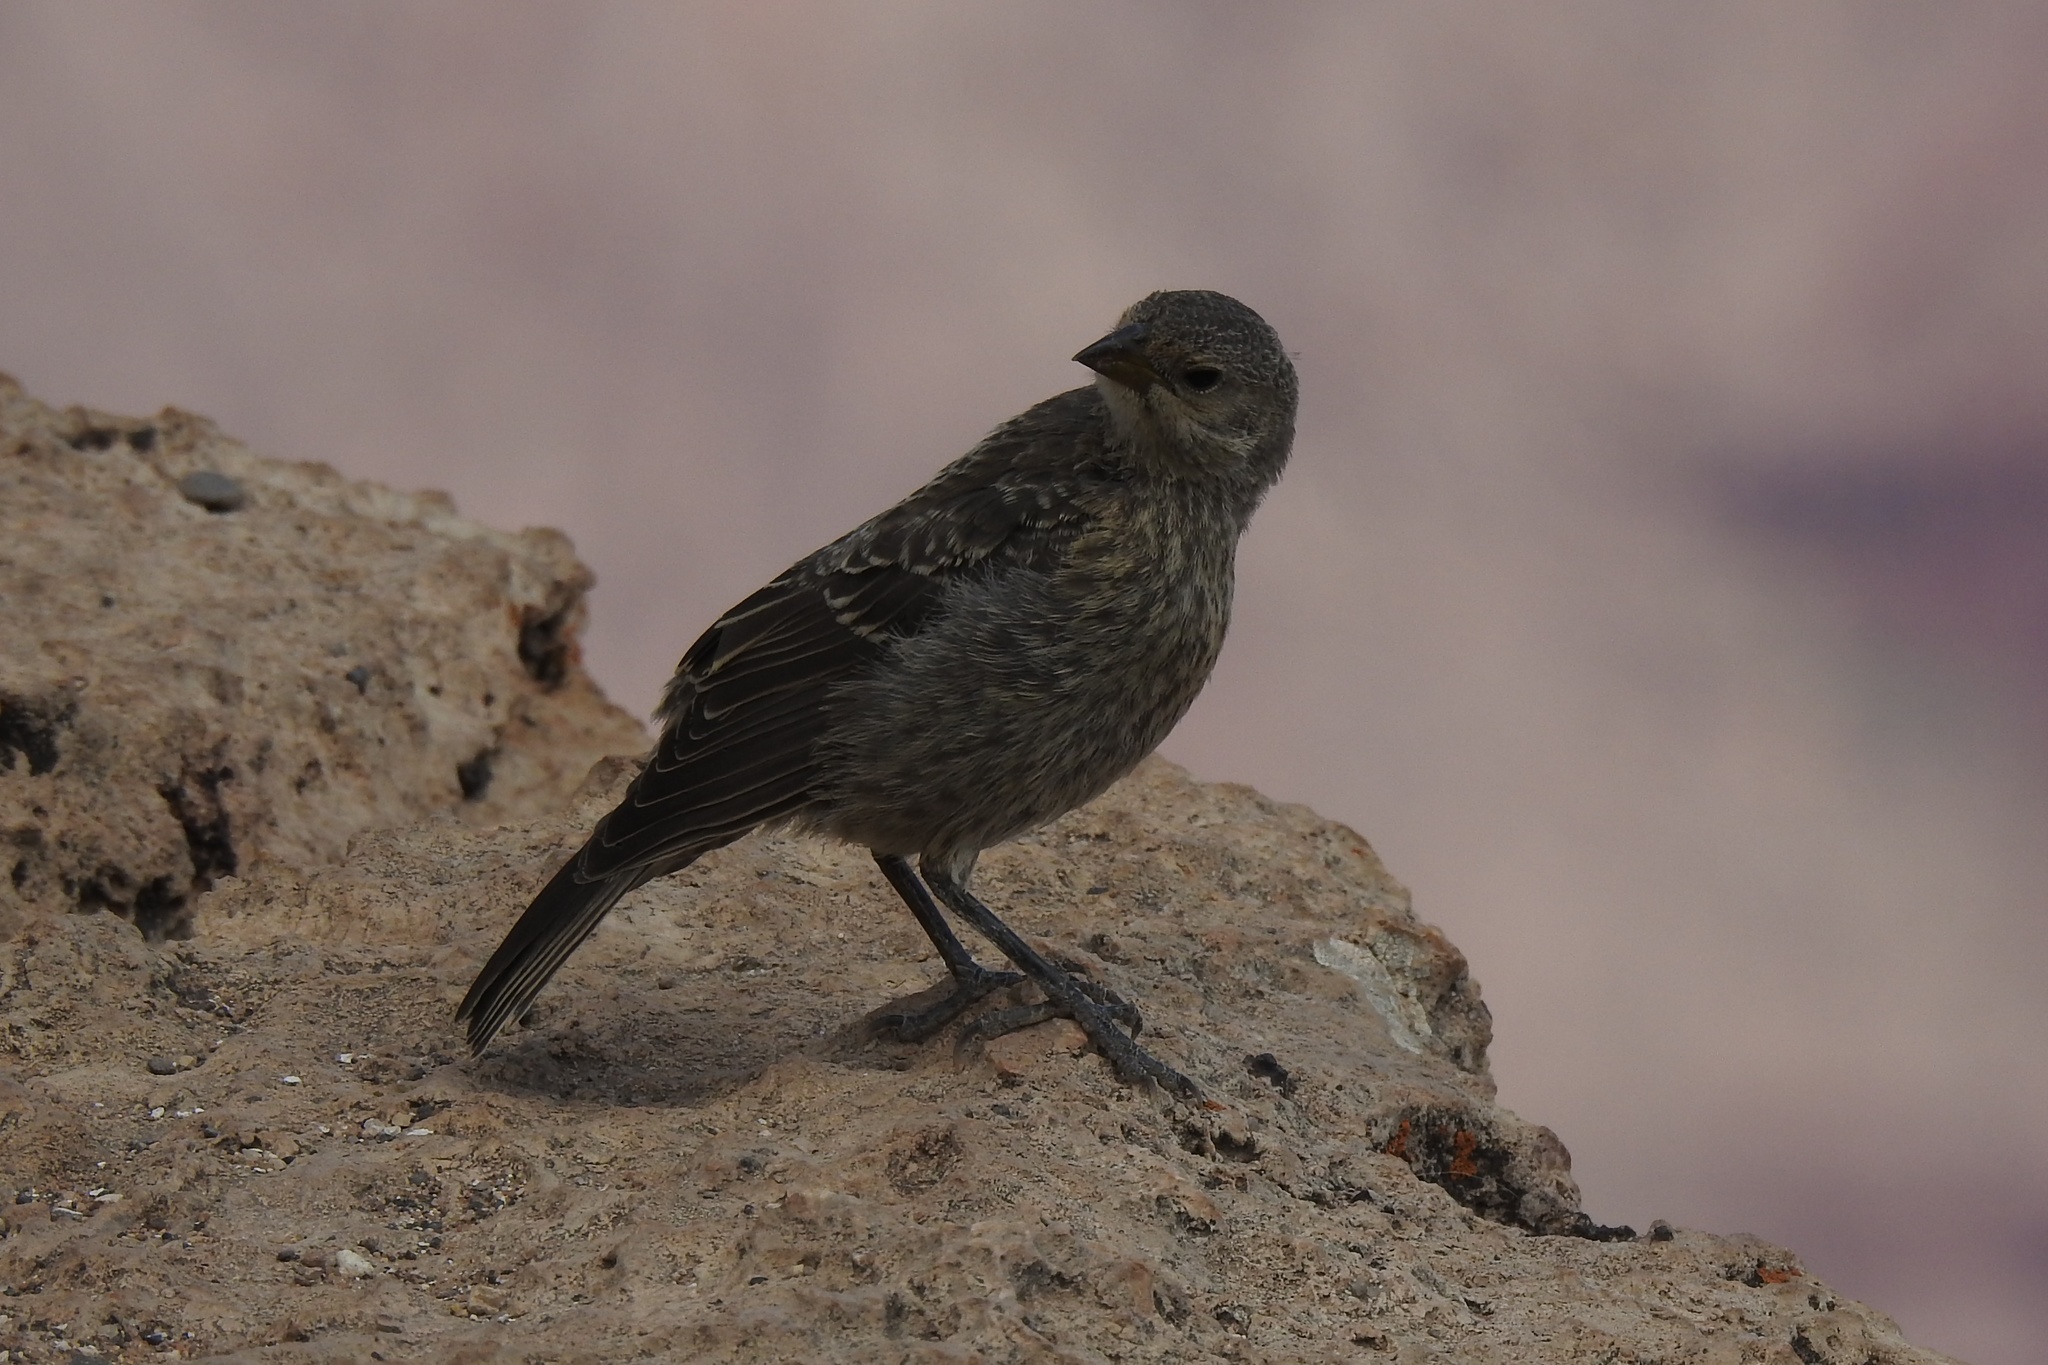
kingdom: Animalia
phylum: Chordata
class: Aves
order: Passeriformes
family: Icteridae
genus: Molothrus
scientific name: Molothrus ater
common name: Brown-headed cowbird
